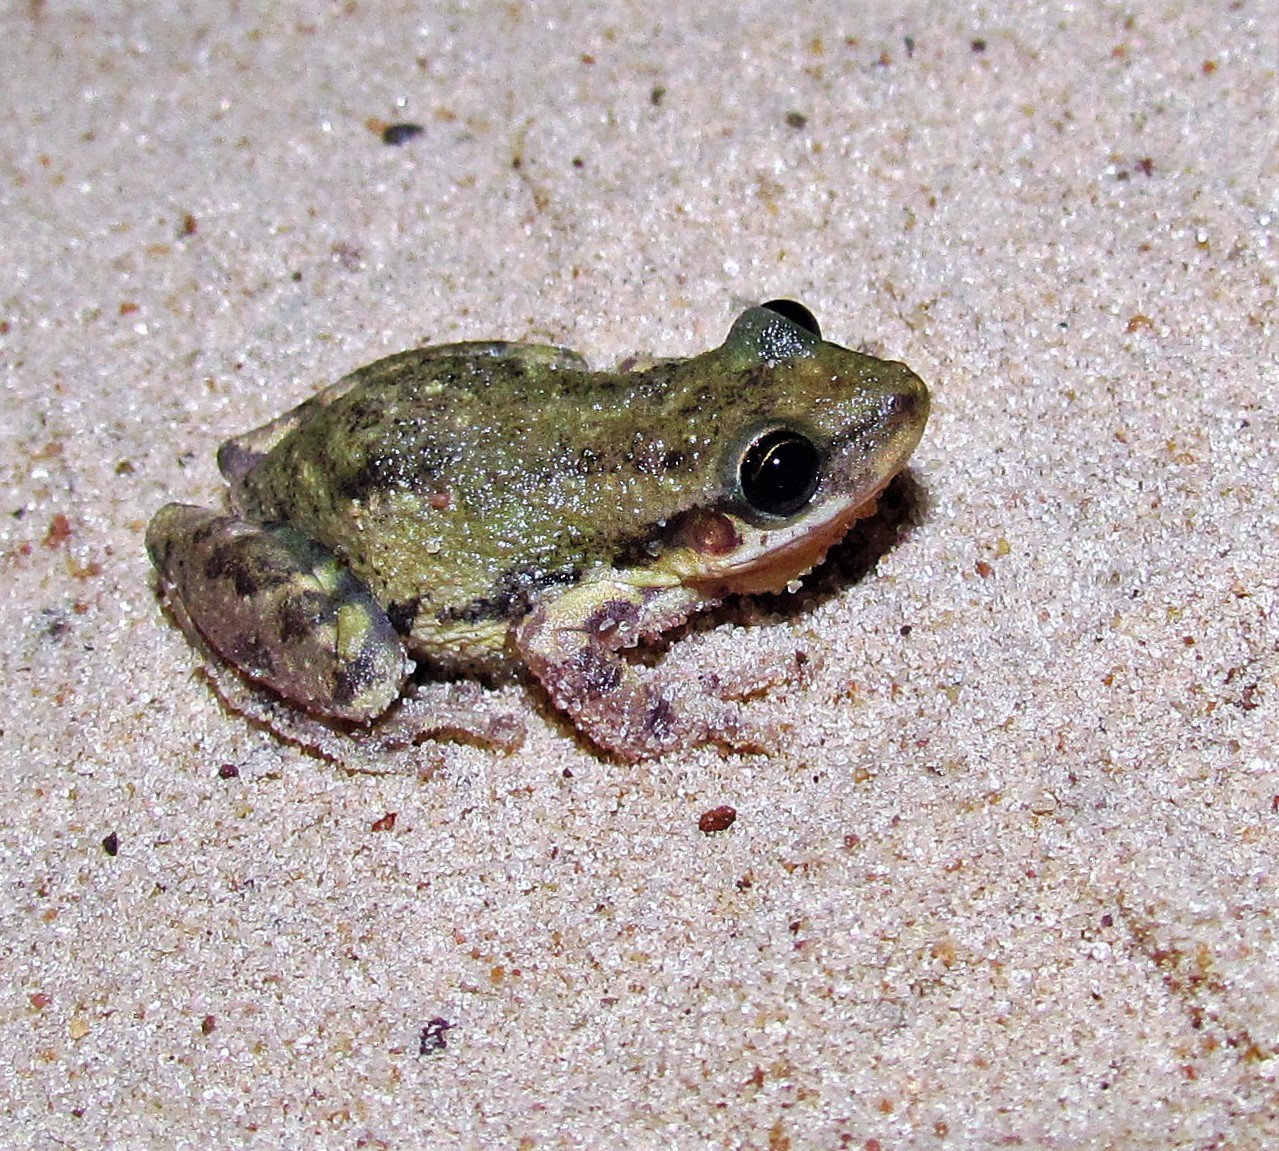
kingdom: Animalia
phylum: Chordata
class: Amphibia
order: Anura
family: Hylidae
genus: Scinax
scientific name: Scinax nasicus
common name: Lesser snouted treefrog
